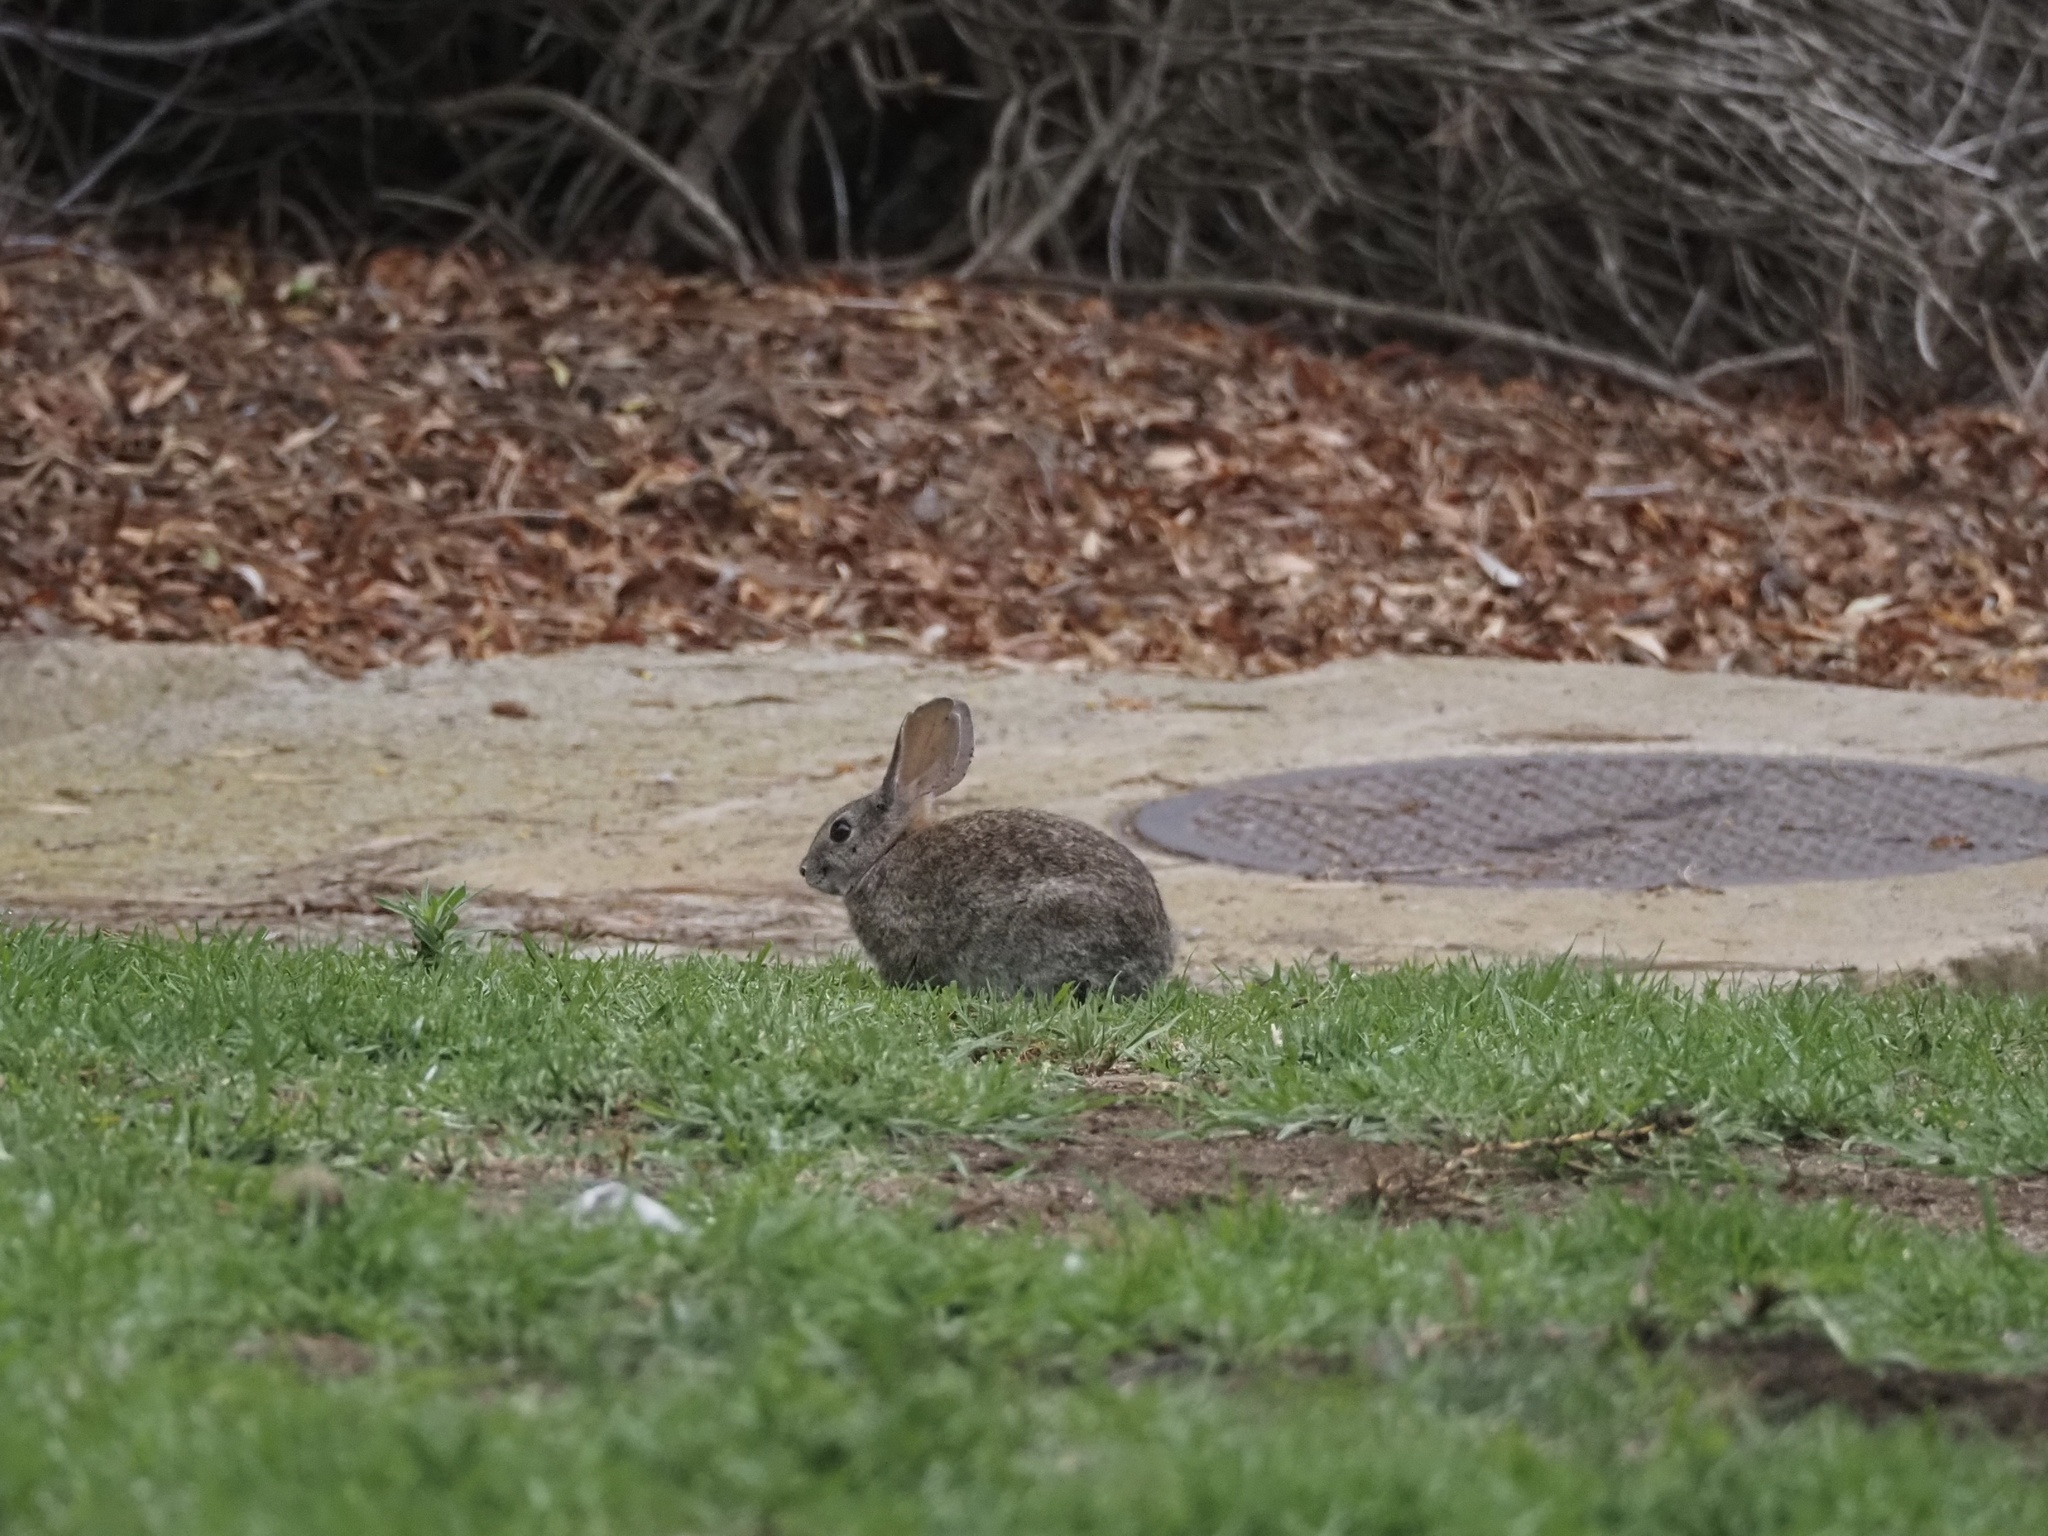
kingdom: Animalia
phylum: Chordata
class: Mammalia
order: Lagomorpha
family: Leporidae
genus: Sylvilagus
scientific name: Sylvilagus bachmani
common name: Brush rabbit
